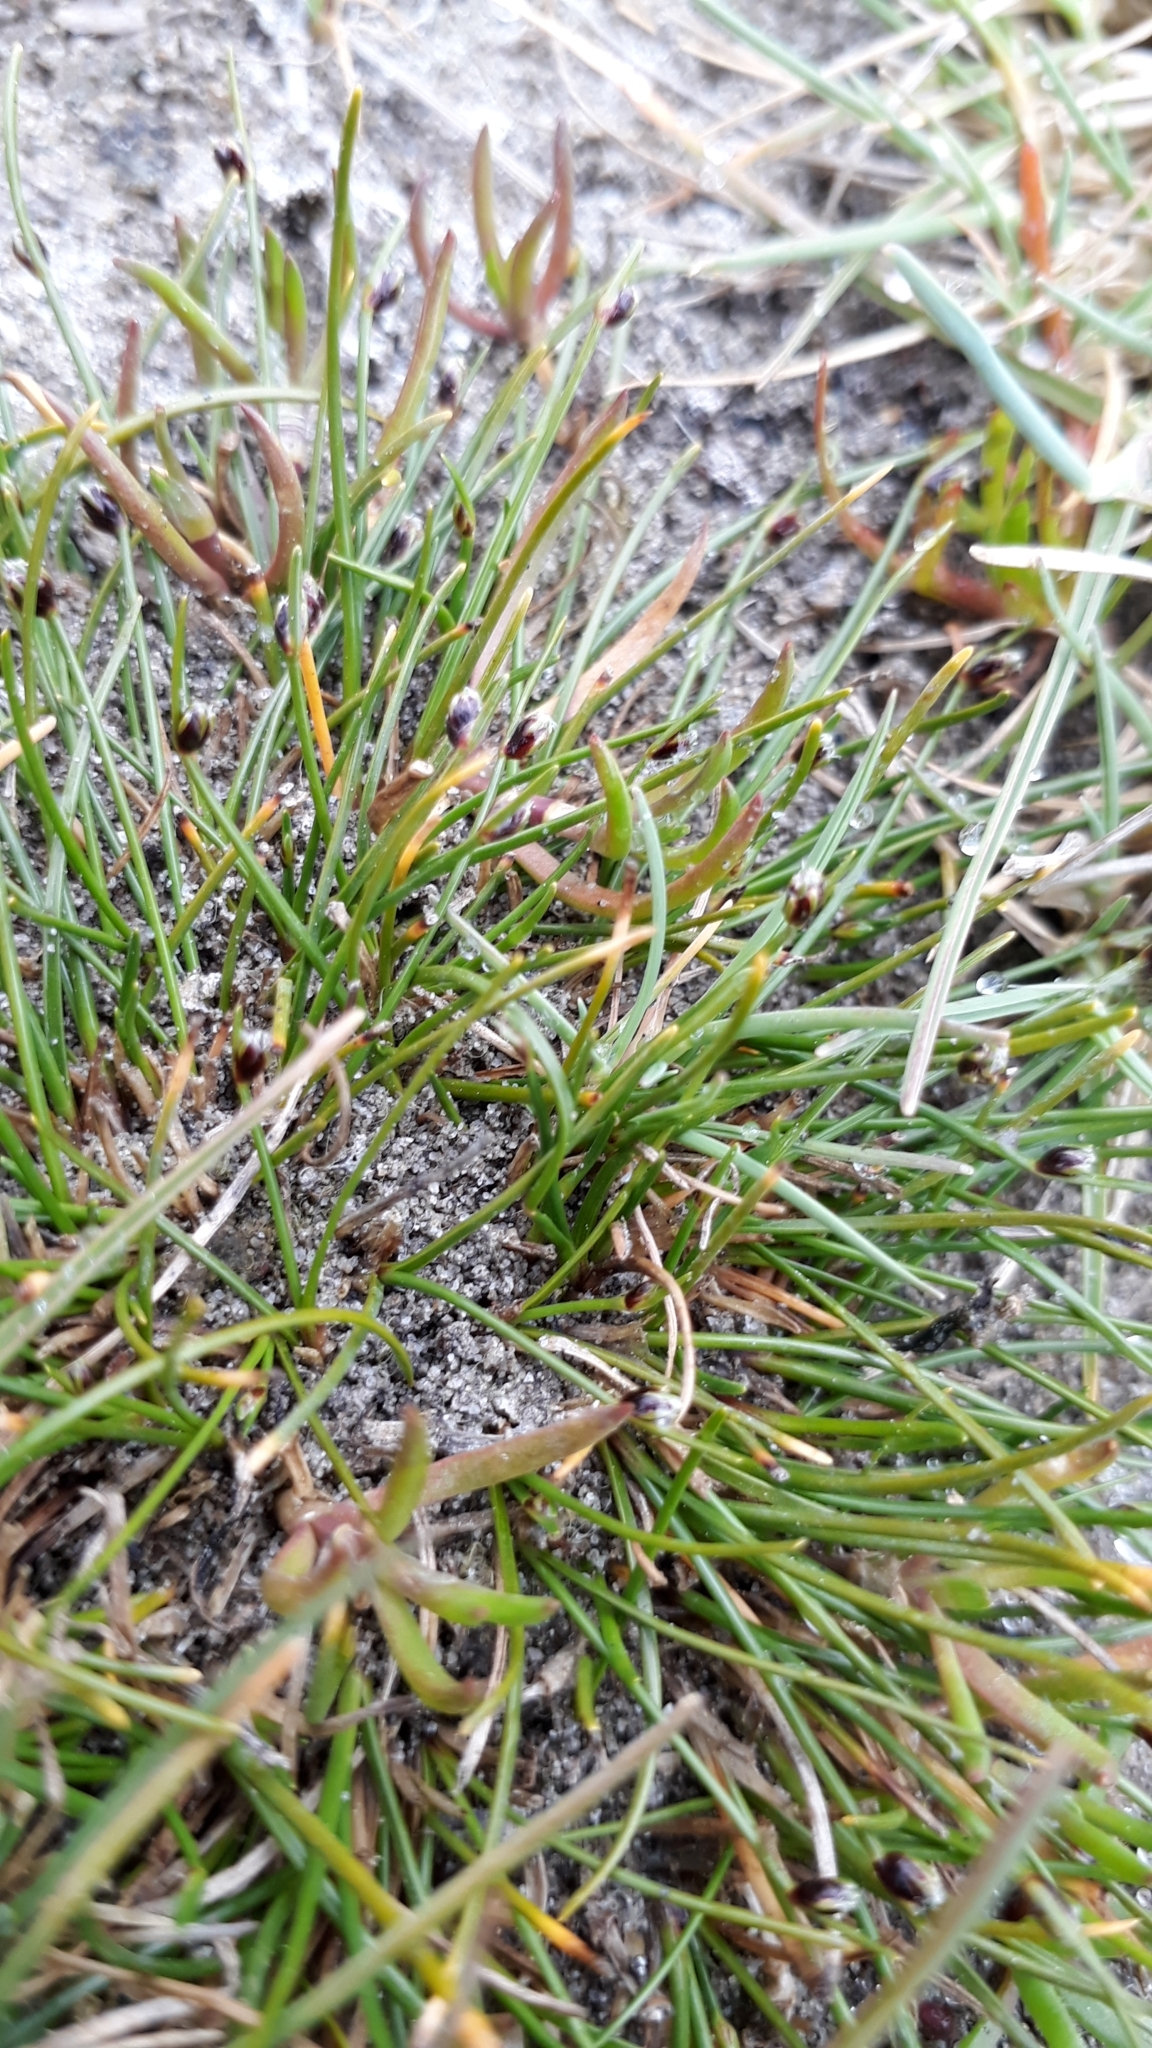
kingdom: Plantae
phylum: Tracheophyta
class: Liliopsida
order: Poales
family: Cyperaceae
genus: Isolepis
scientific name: Isolepis cernua
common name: Slender club-rush
